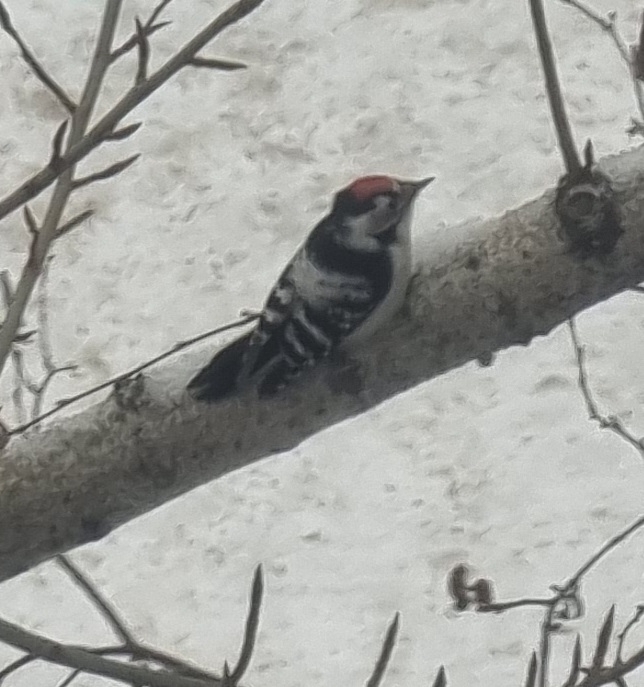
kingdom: Animalia
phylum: Chordata
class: Aves
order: Piciformes
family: Picidae
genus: Dryobates
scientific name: Dryobates minor
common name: Lesser spotted woodpecker
